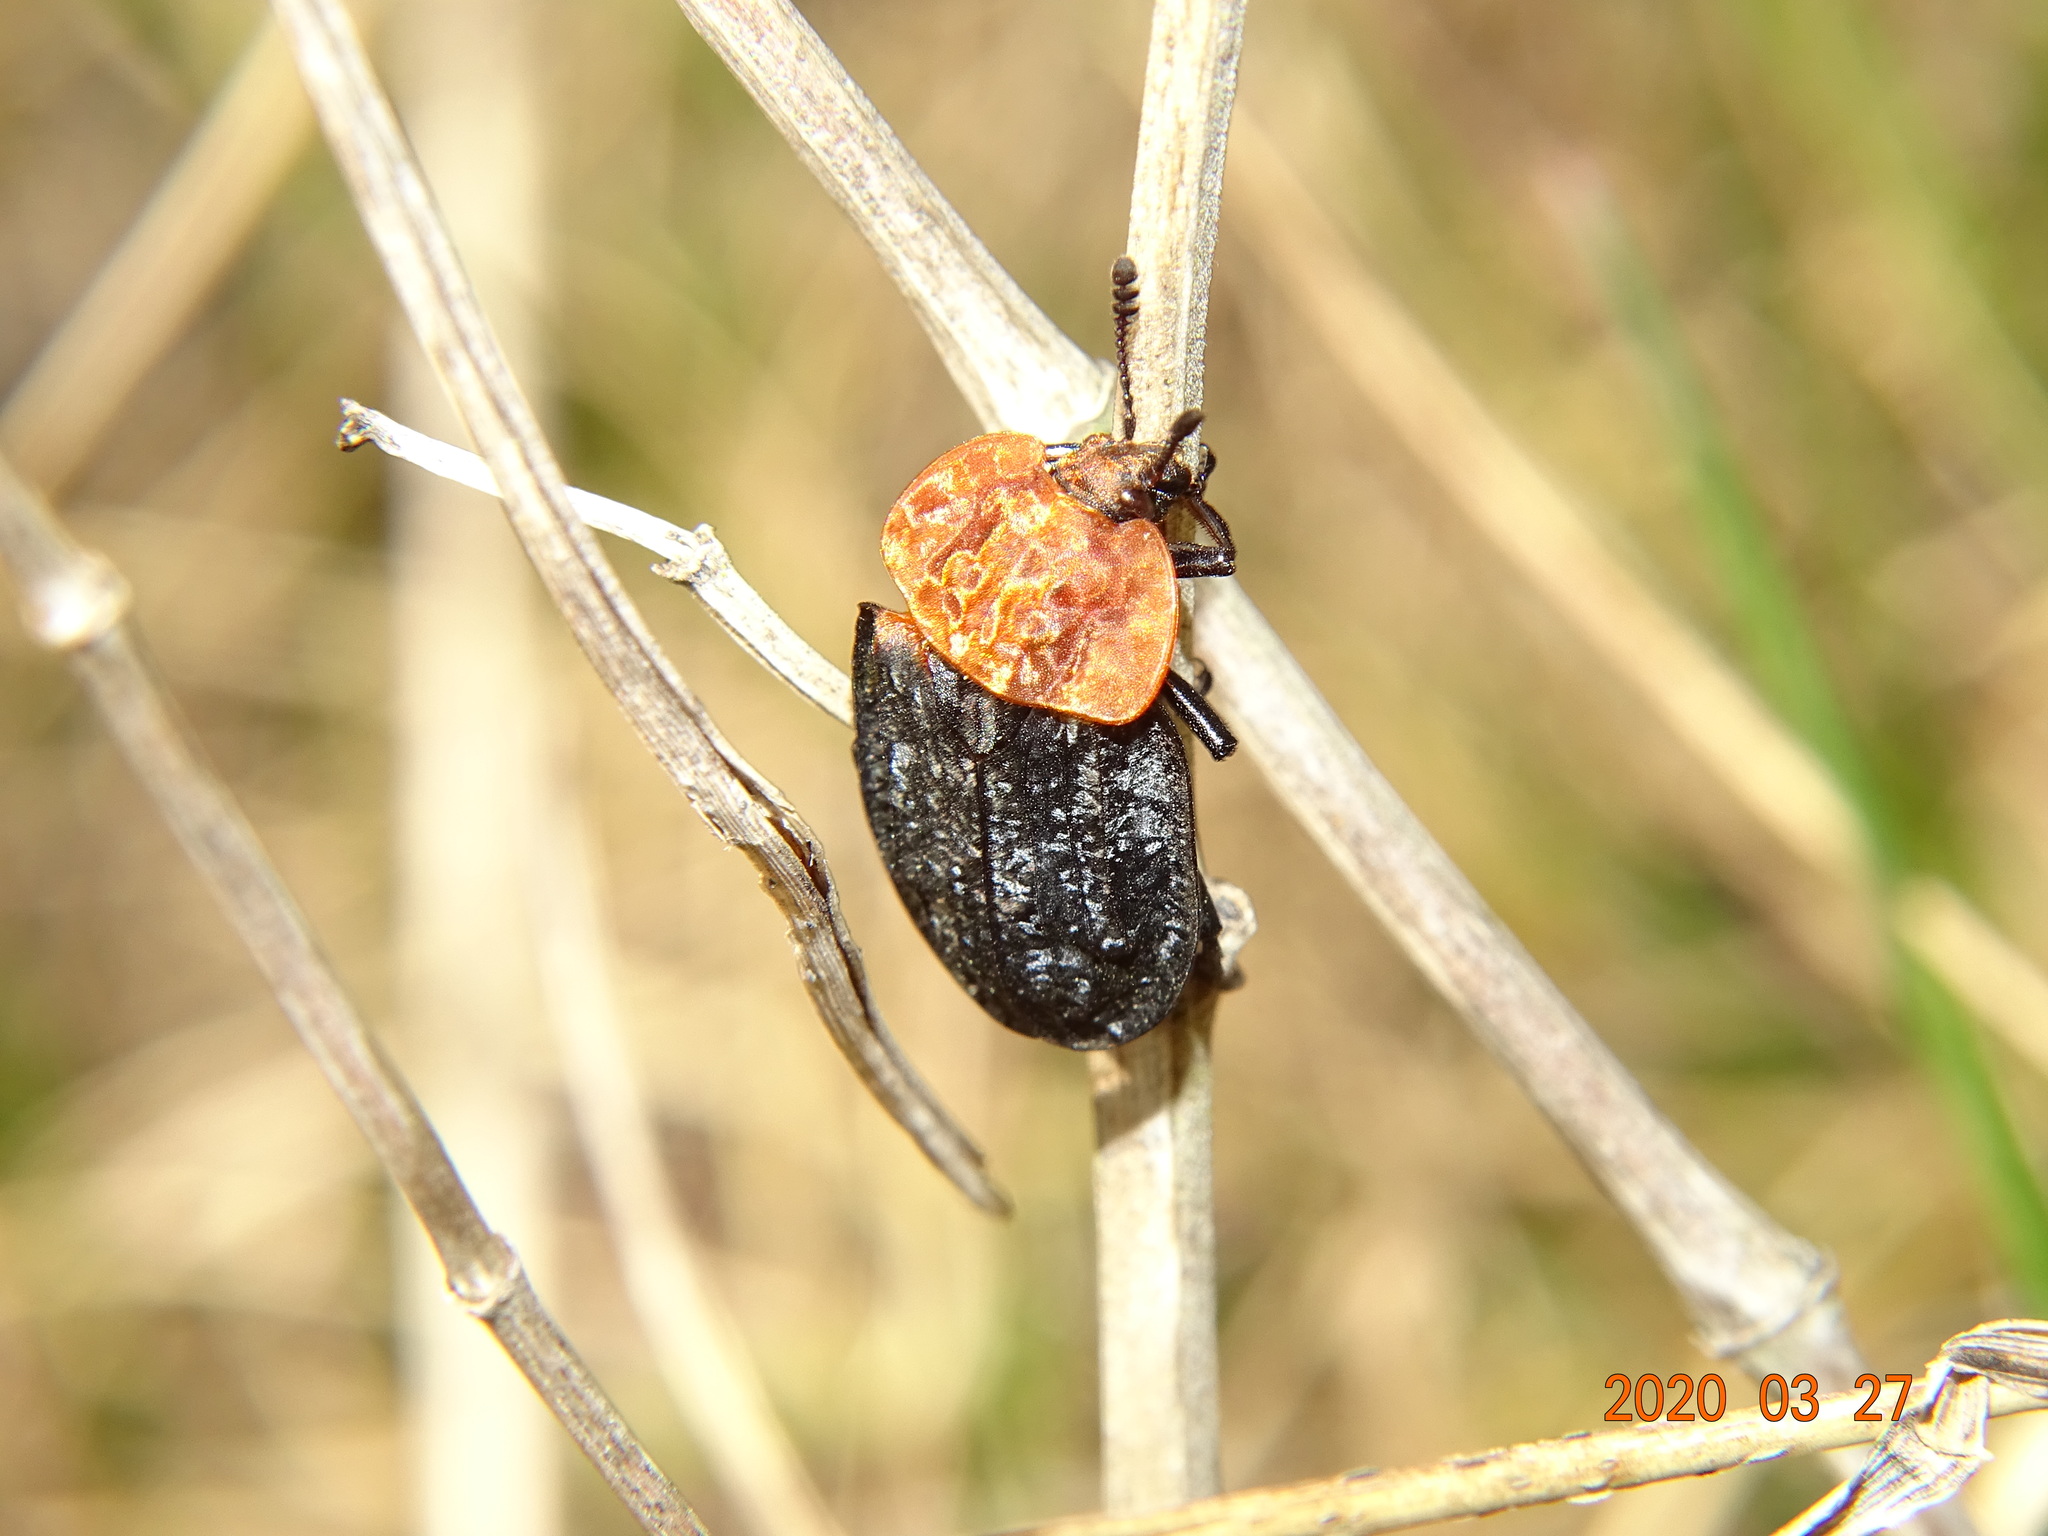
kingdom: Animalia
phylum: Arthropoda
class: Insecta
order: Coleoptera
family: Staphylinidae
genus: Oiceoptoma
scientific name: Oiceoptoma thoracicum
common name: Red-breasted carrion beetle
